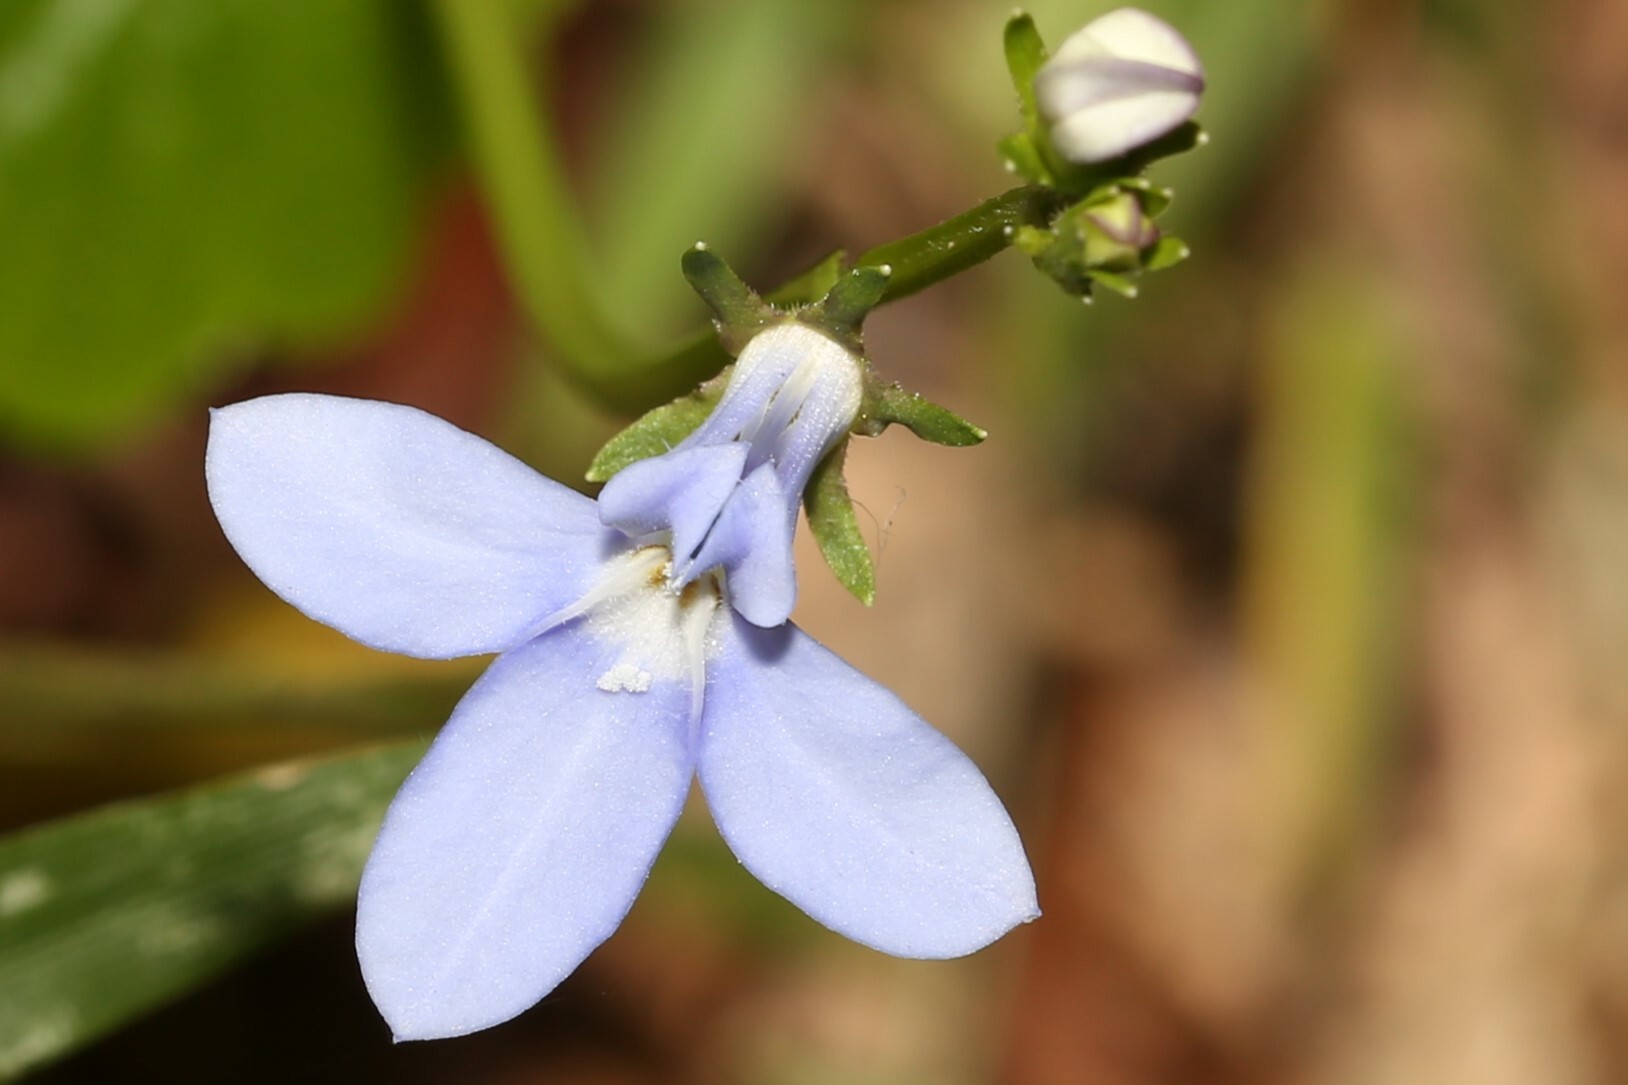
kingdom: Plantae
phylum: Tracheophyta
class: Magnoliopsida
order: Asterales
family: Campanulaceae
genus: Lobelia
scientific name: Lobelia trigonocaulis
